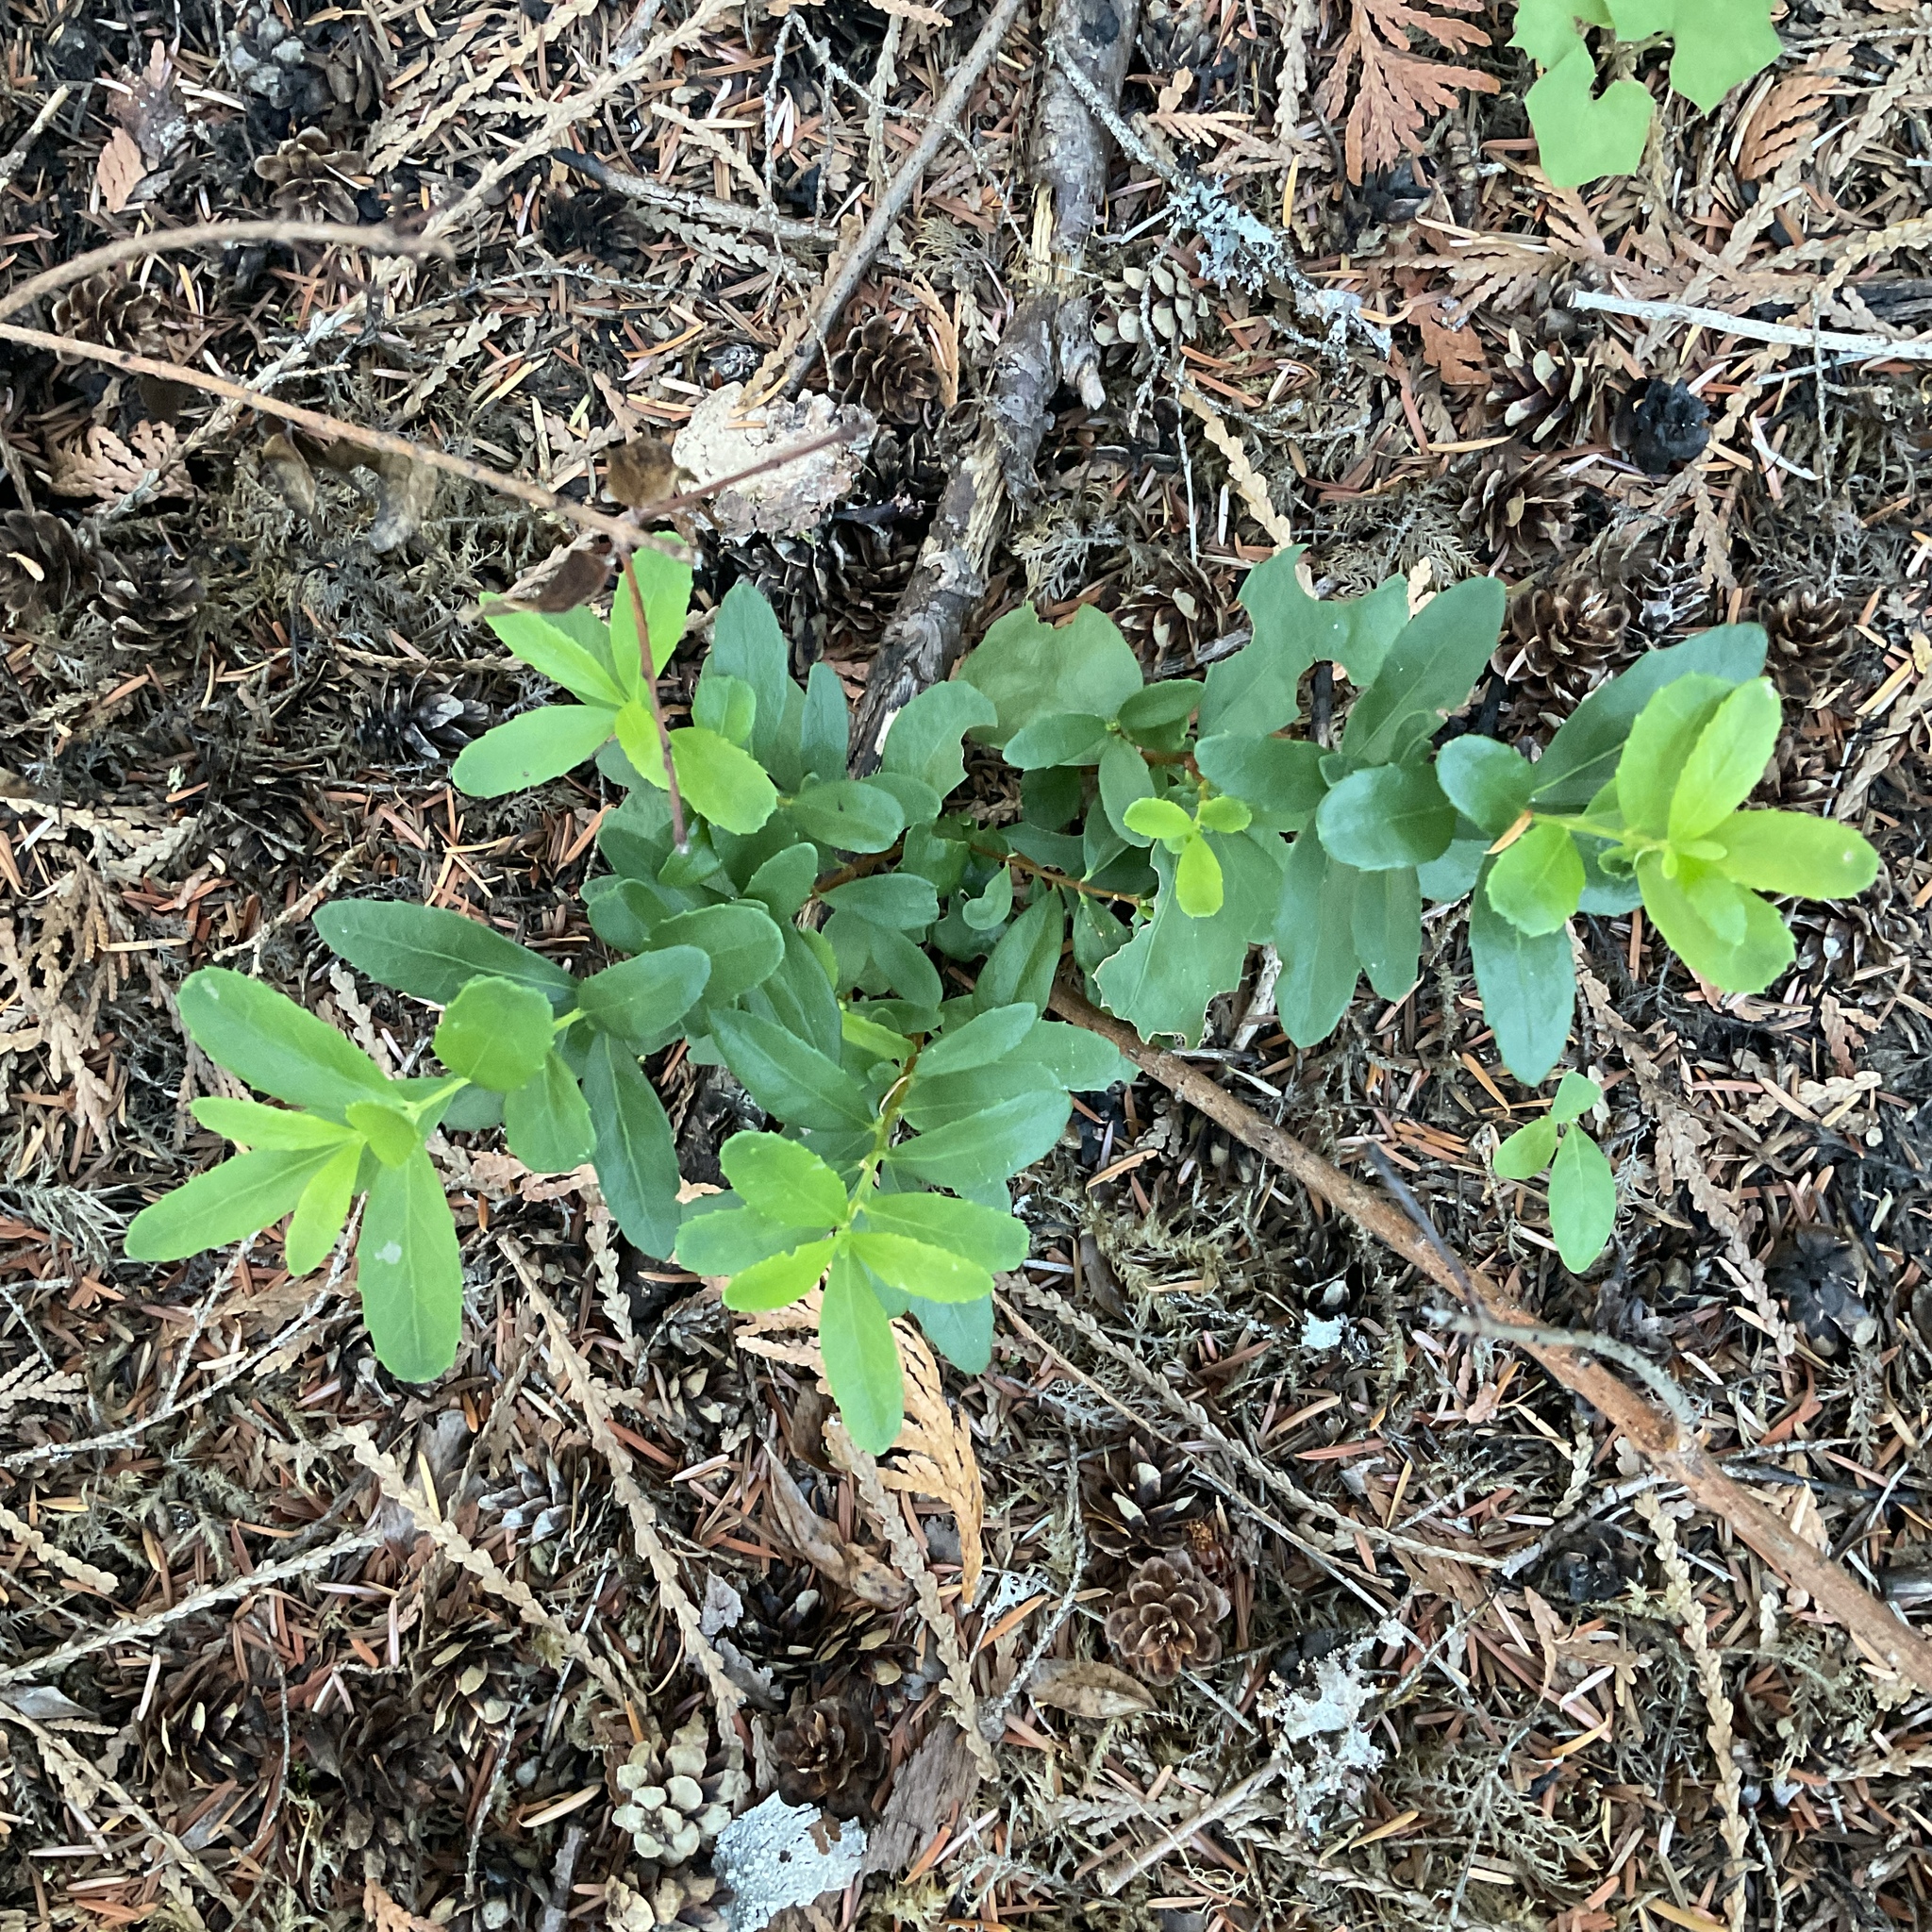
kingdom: Plantae
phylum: Tracheophyta
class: Magnoliopsida
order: Celastrales
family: Celastraceae
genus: Paxistima
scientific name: Paxistima myrsinites
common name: Mountain-lover
